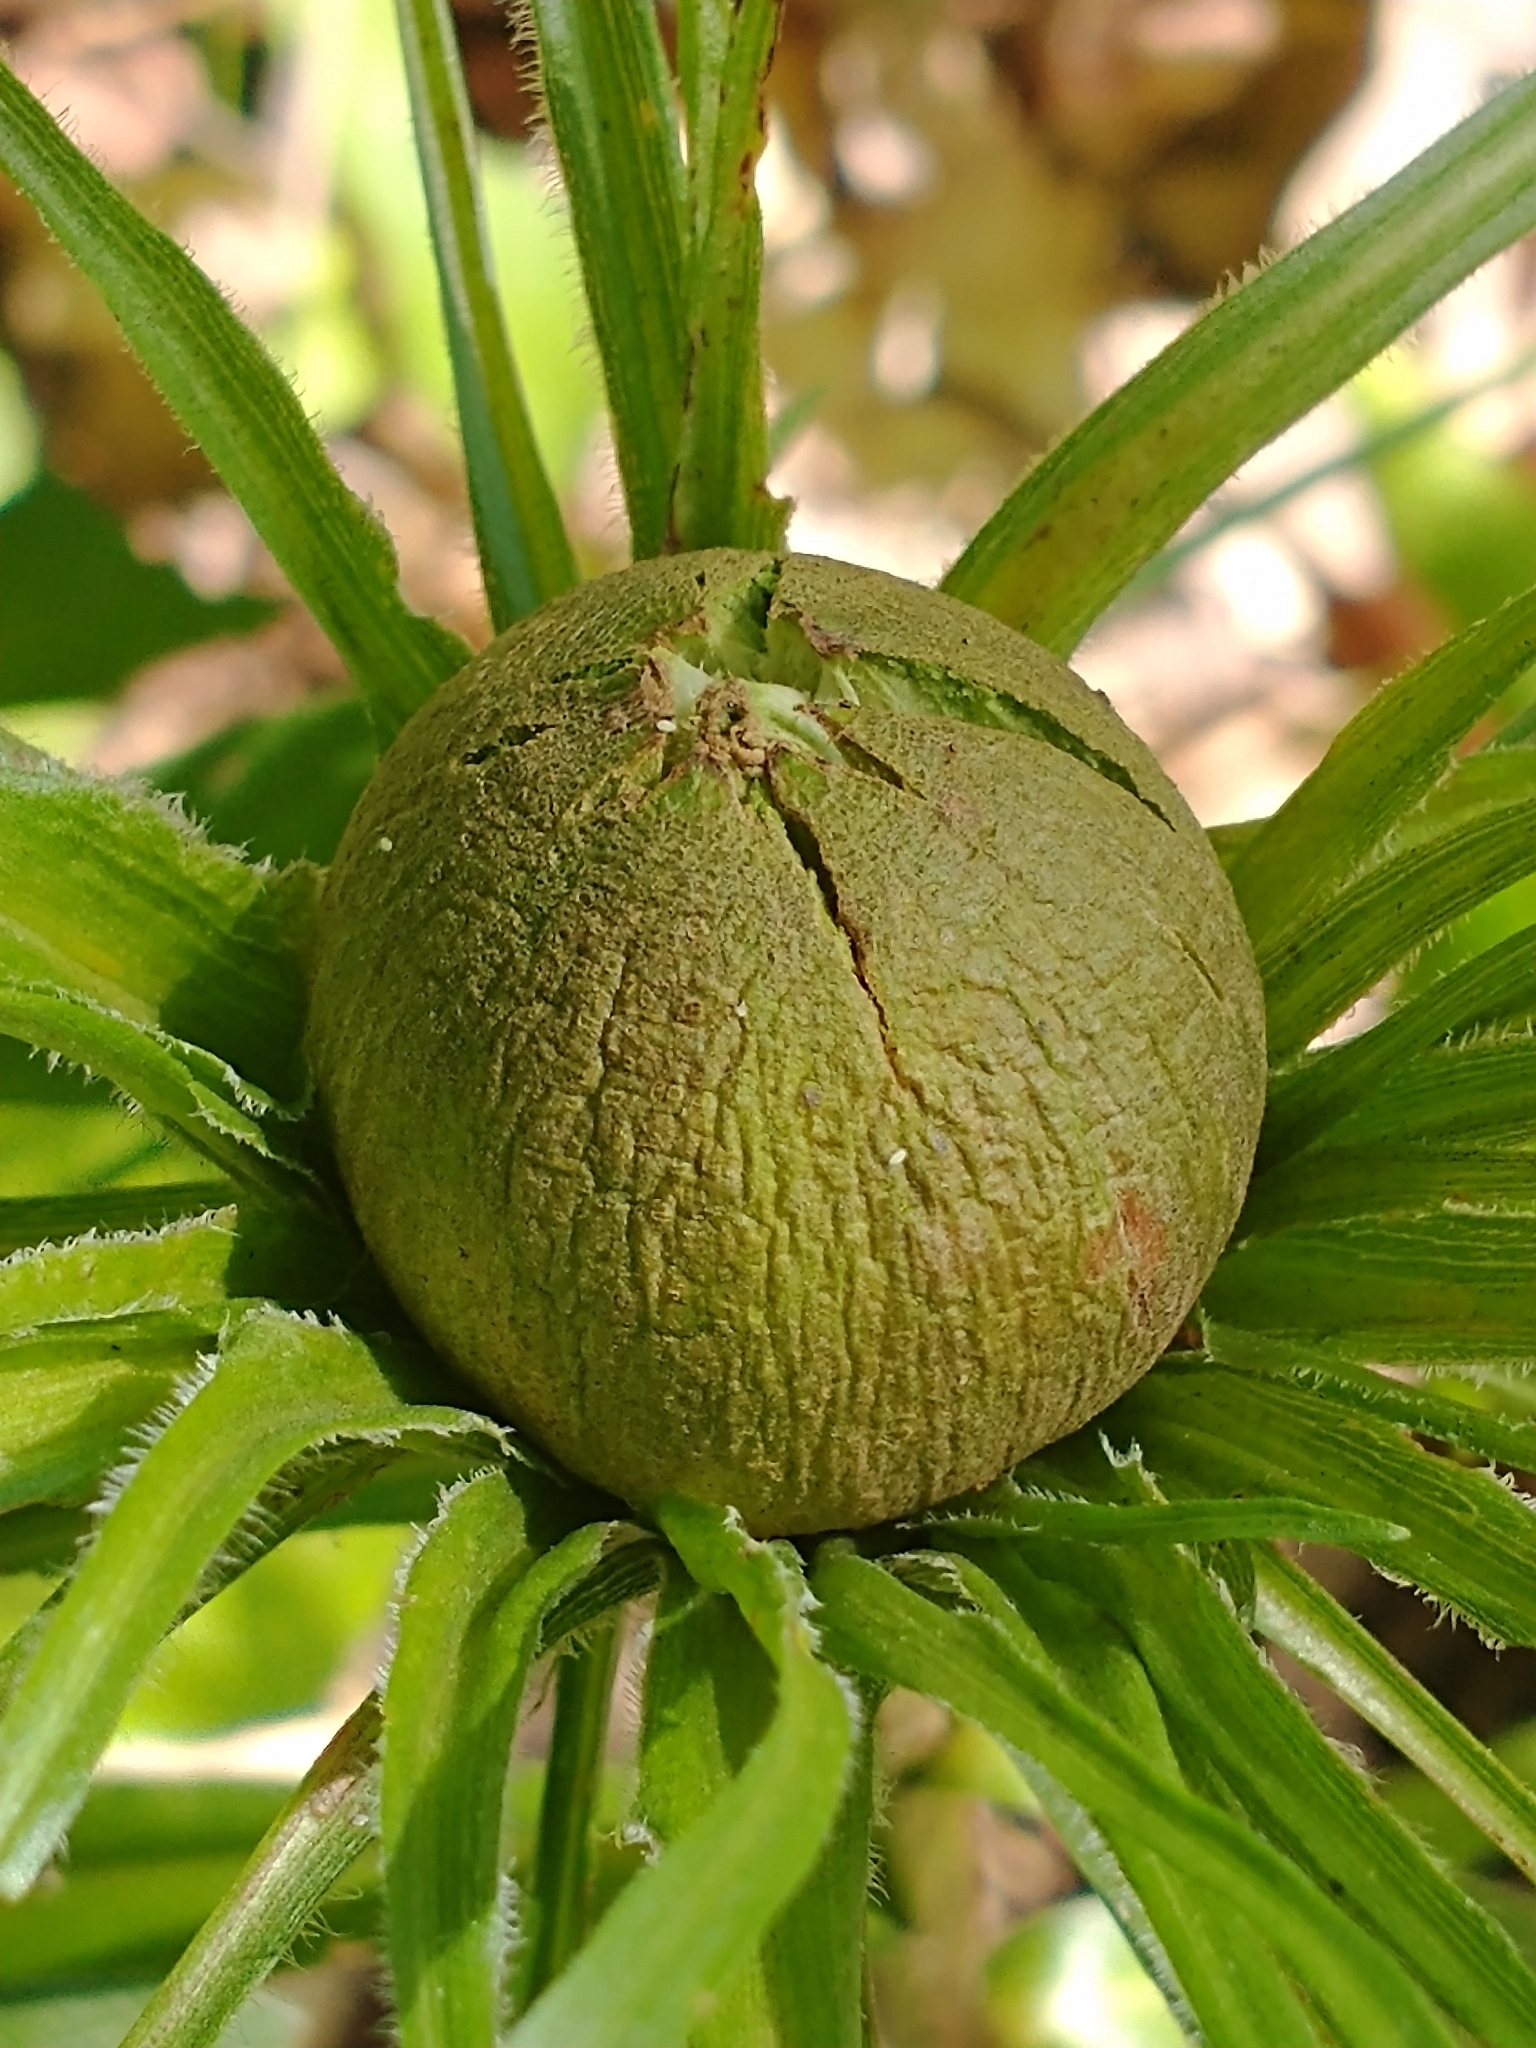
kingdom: Animalia
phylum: Arthropoda
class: Insecta
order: Diptera
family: Cecidomyiidae
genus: Rhopalomyia
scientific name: Rhopalomyia hirtipes
